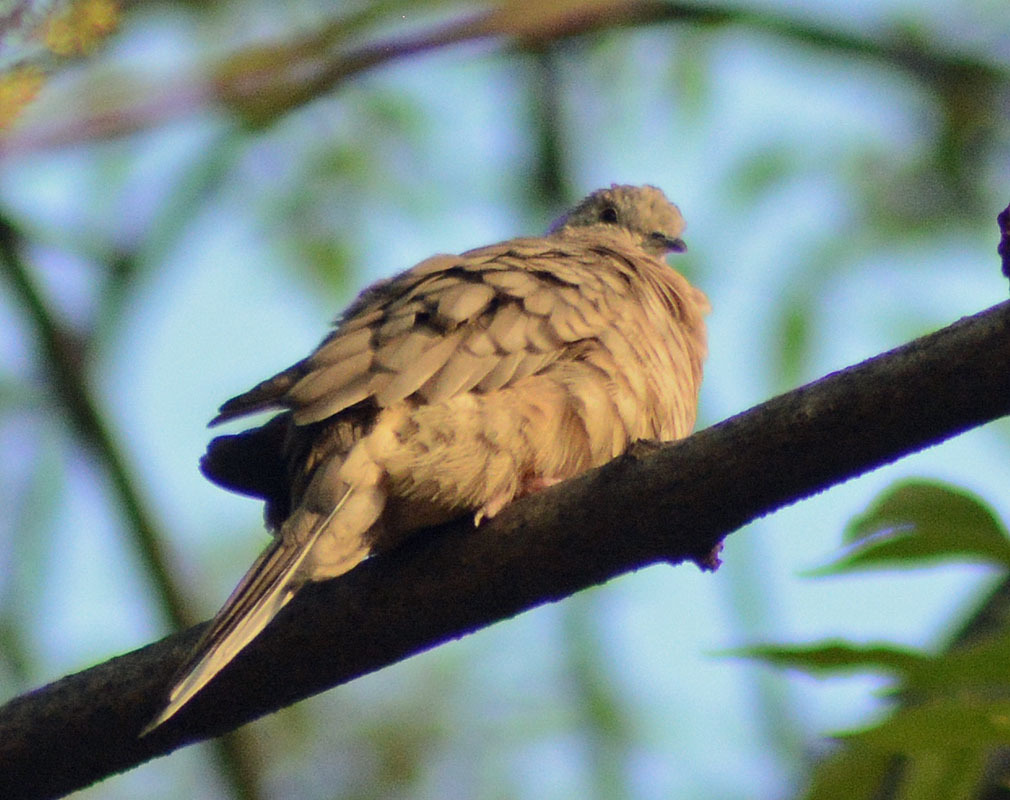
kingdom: Animalia
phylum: Chordata
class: Aves
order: Columbiformes
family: Columbidae
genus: Columbina
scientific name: Columbina inca
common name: Inca dove
